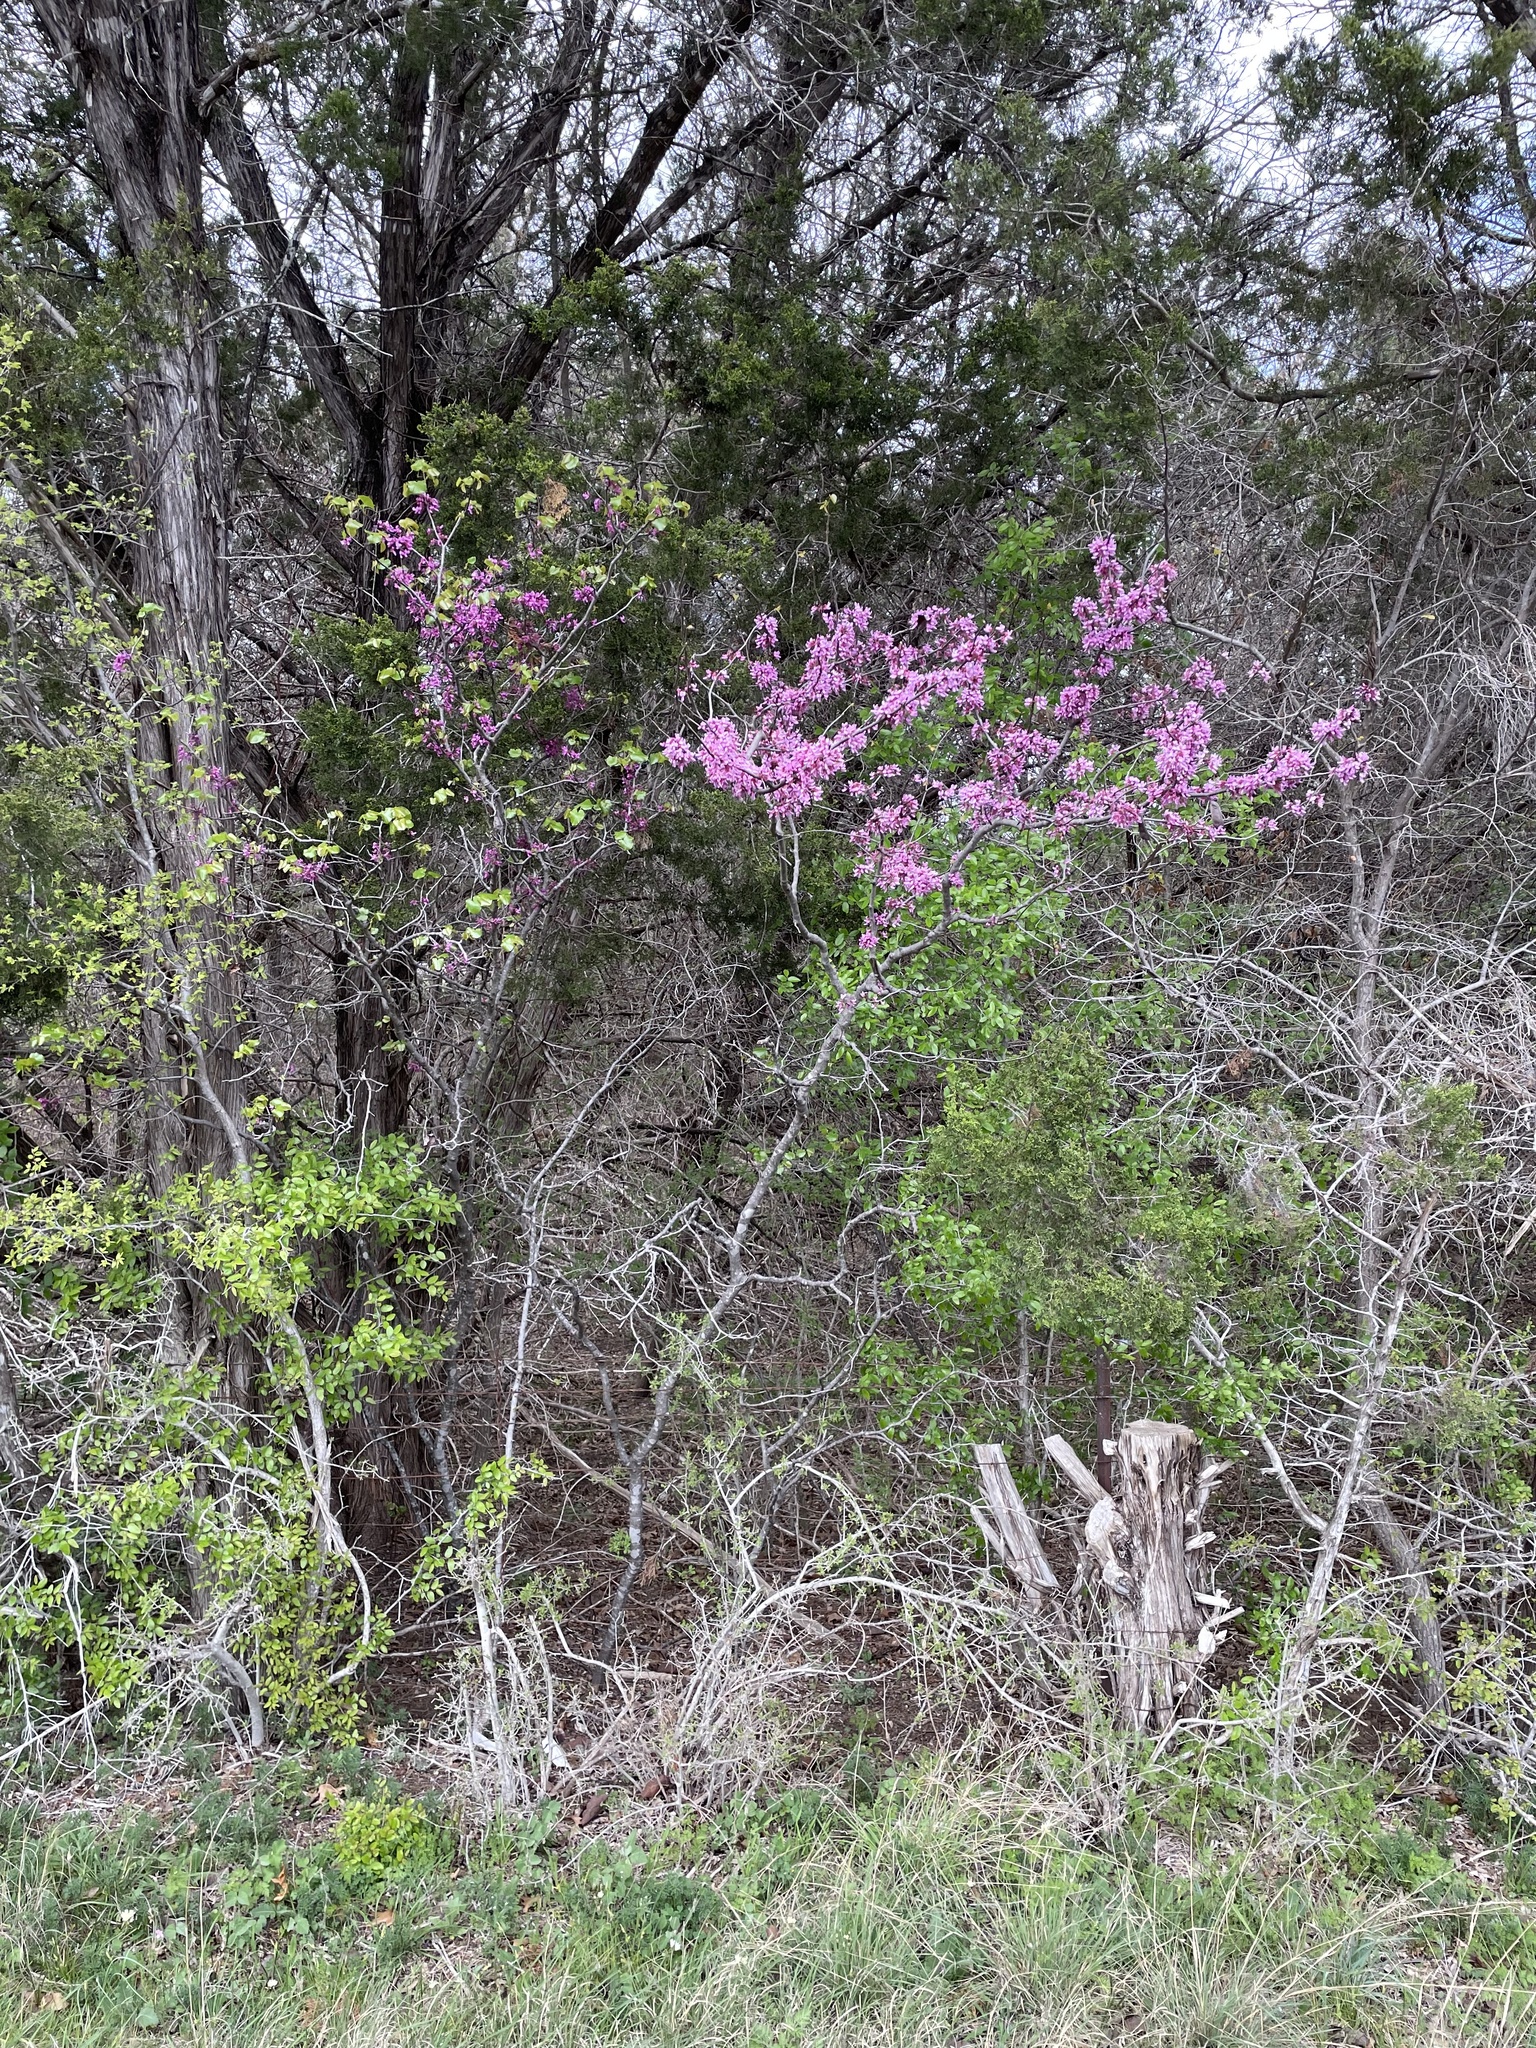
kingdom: Plantae
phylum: Tracheophyta
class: Magnoliopsida
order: Fabales
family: Fabaceae
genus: Cercis
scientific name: Cercis canadensis
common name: Eastern redbud
